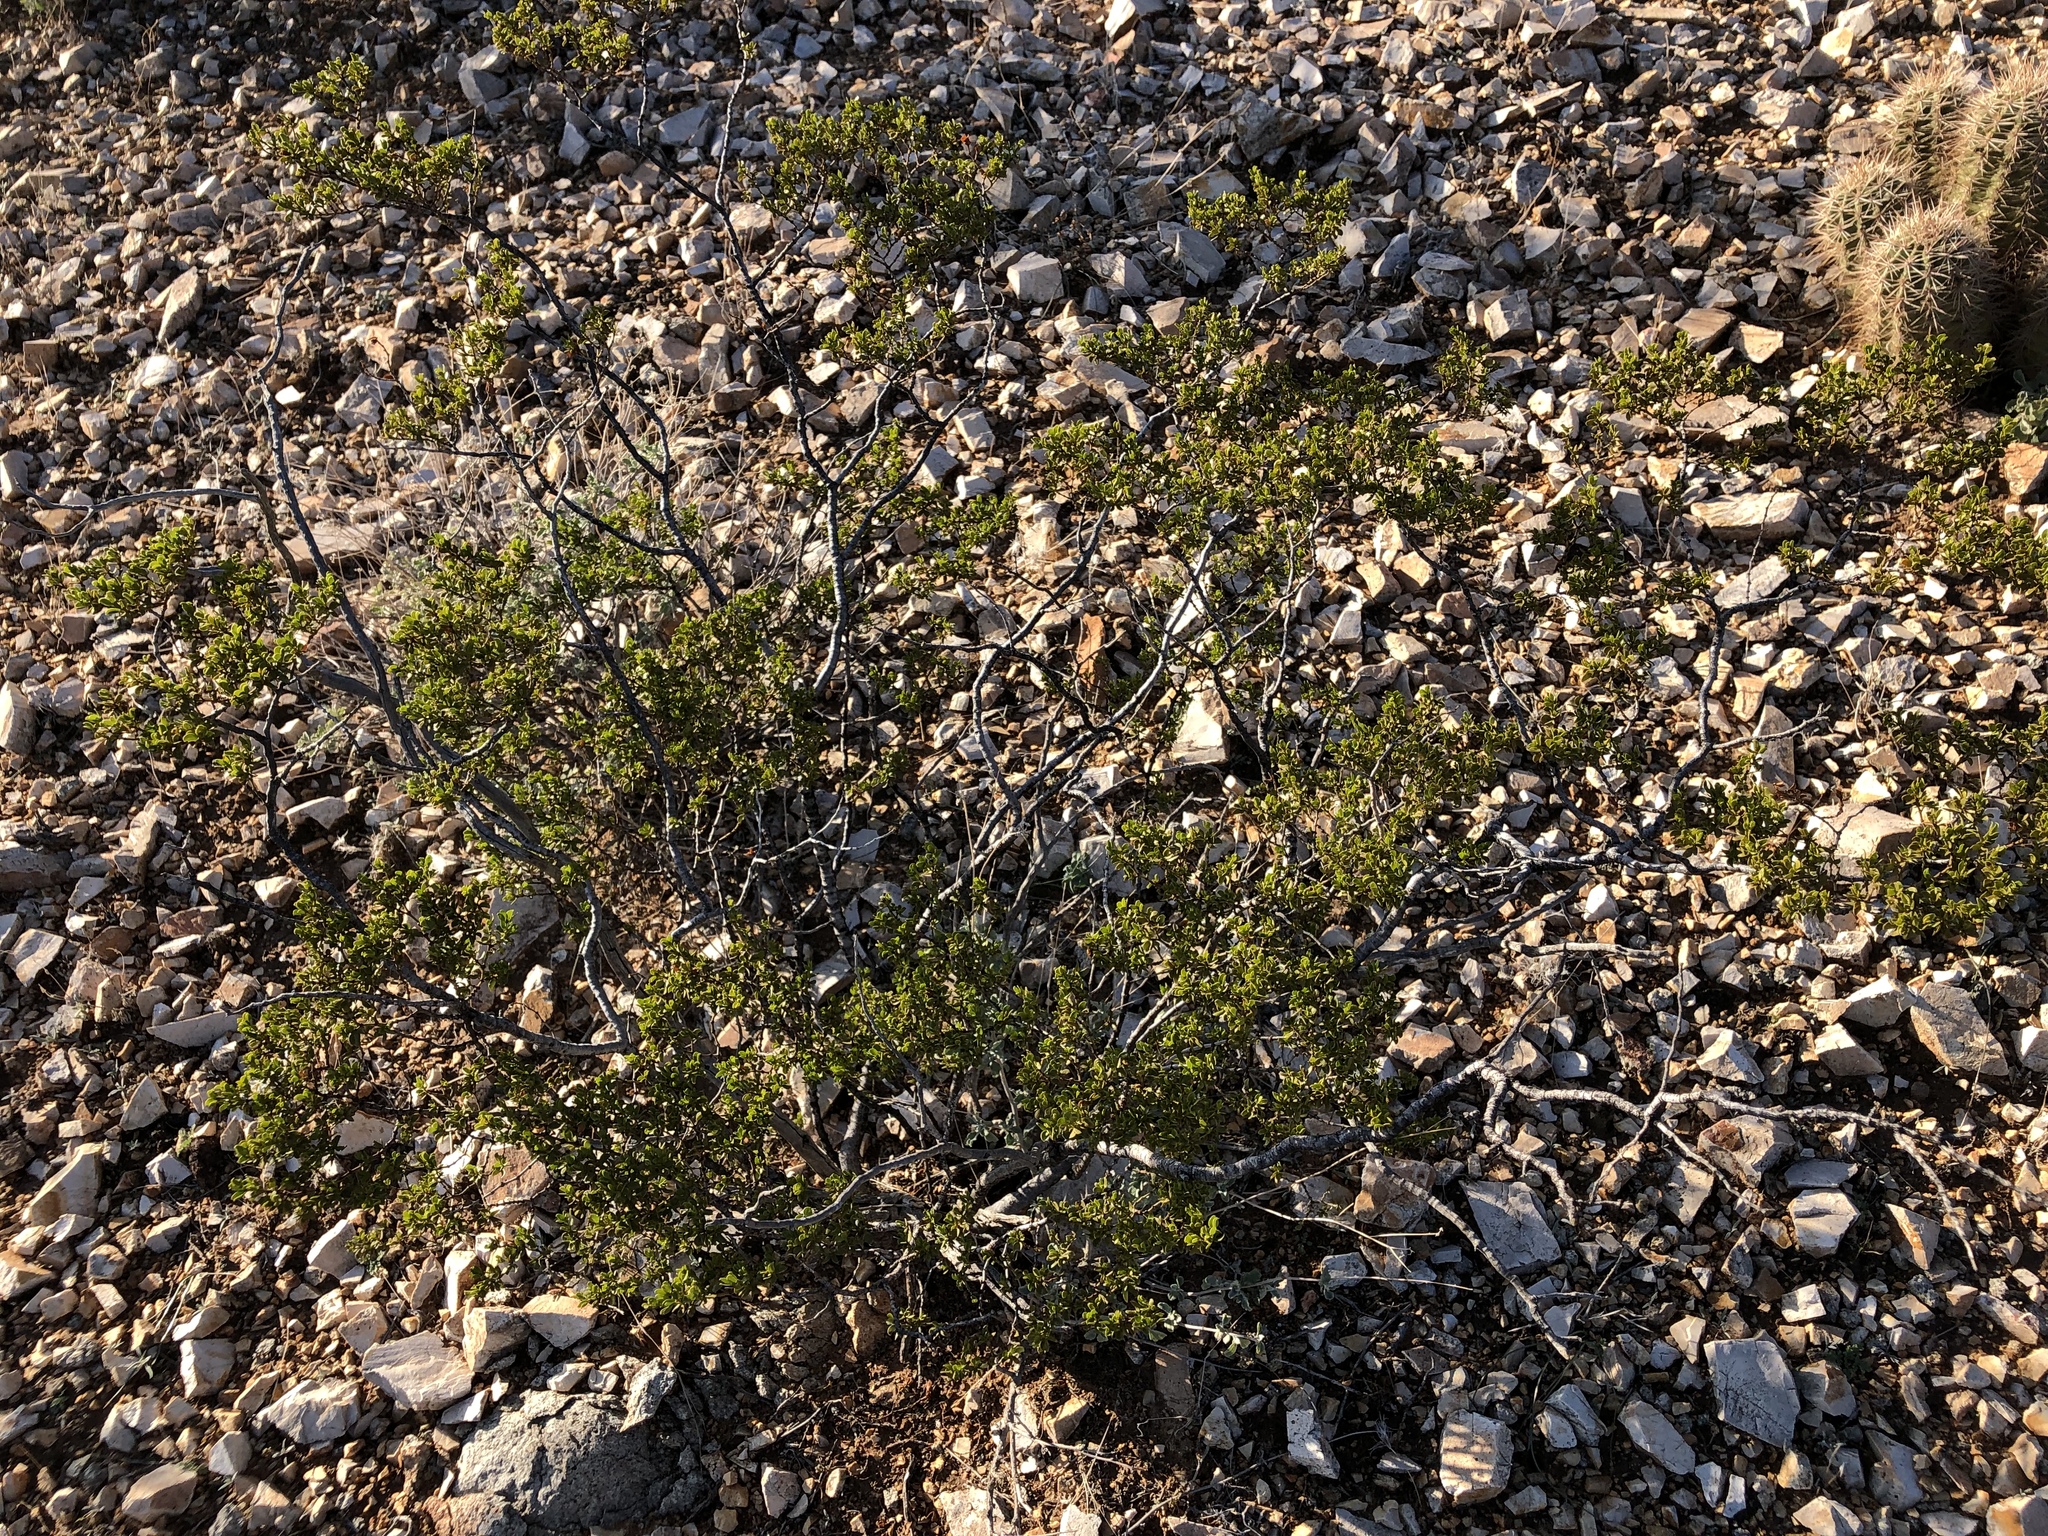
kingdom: Plantae
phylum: Tracheophyta
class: Magnoliopsida
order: Zygophyllales
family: Zygophyllaceae
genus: Larrea
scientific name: Larrea tridentata
